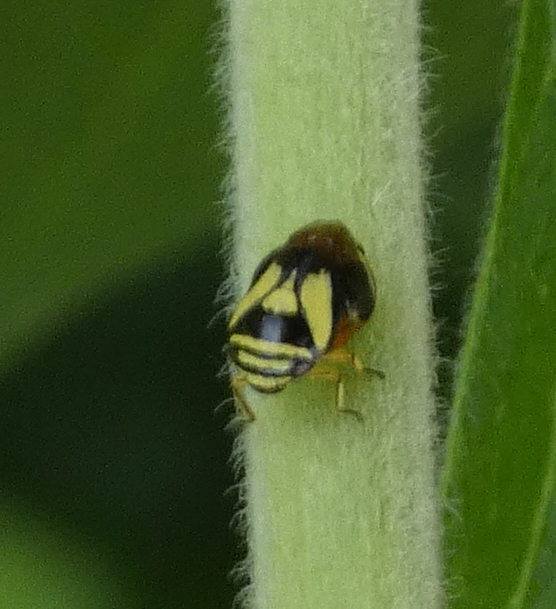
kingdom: Animalia
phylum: Arthropoda
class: Insecta
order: Hemiptera
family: Clastopteridae
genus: Clastoptera
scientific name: Clastoptera proteus
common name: Dogwood spittlebug
